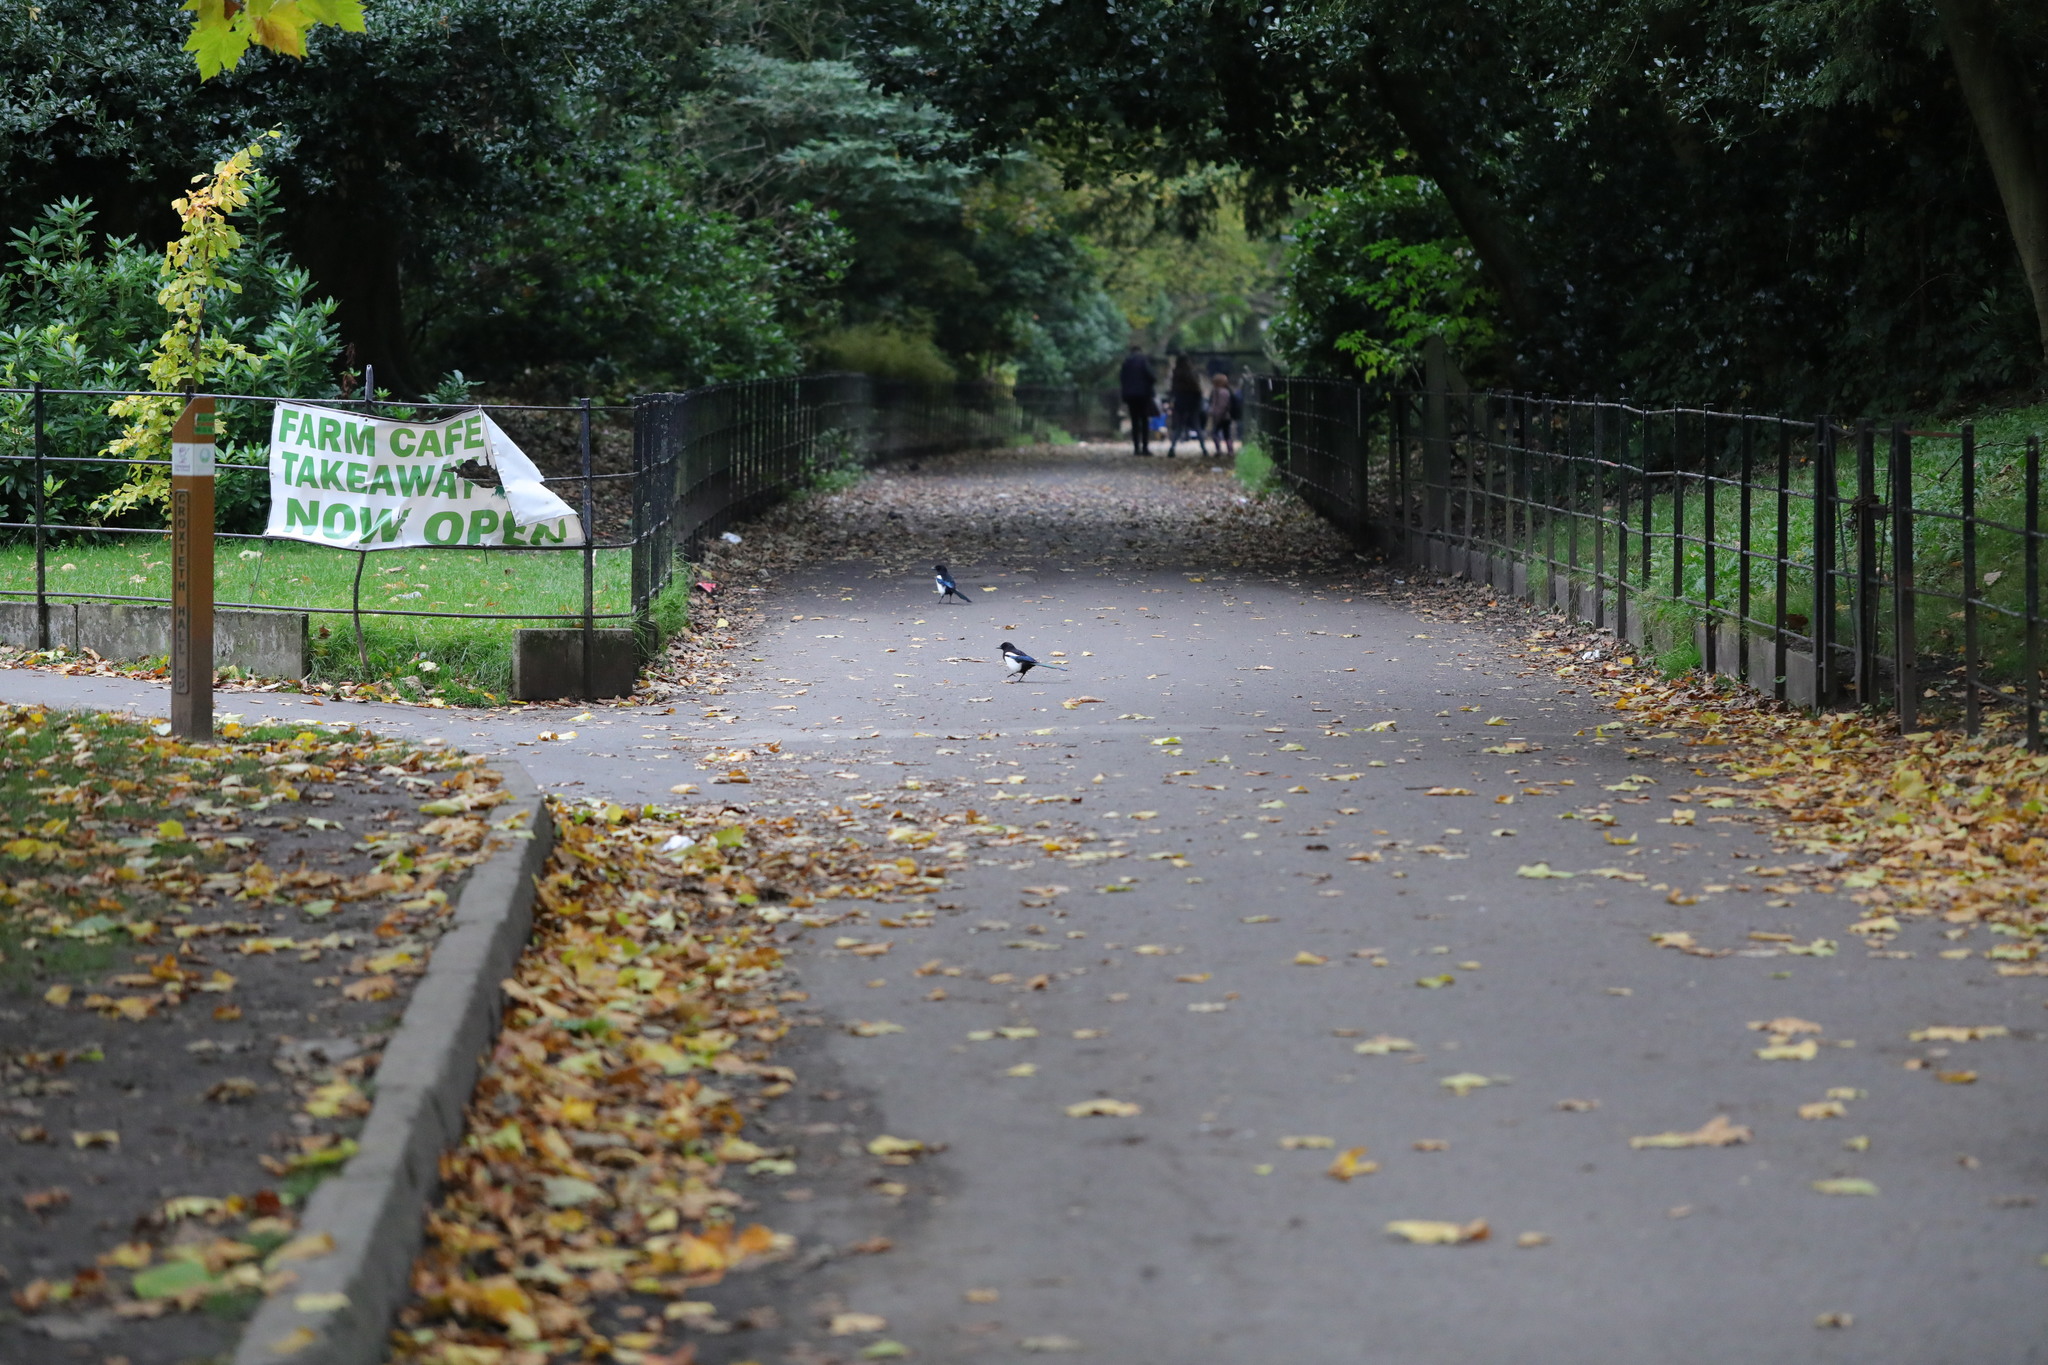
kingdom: Animalia
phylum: Chordata
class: Aves
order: Passeriformes
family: Corvidae
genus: Pica
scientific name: Pica pica
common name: Eurasian magpie
